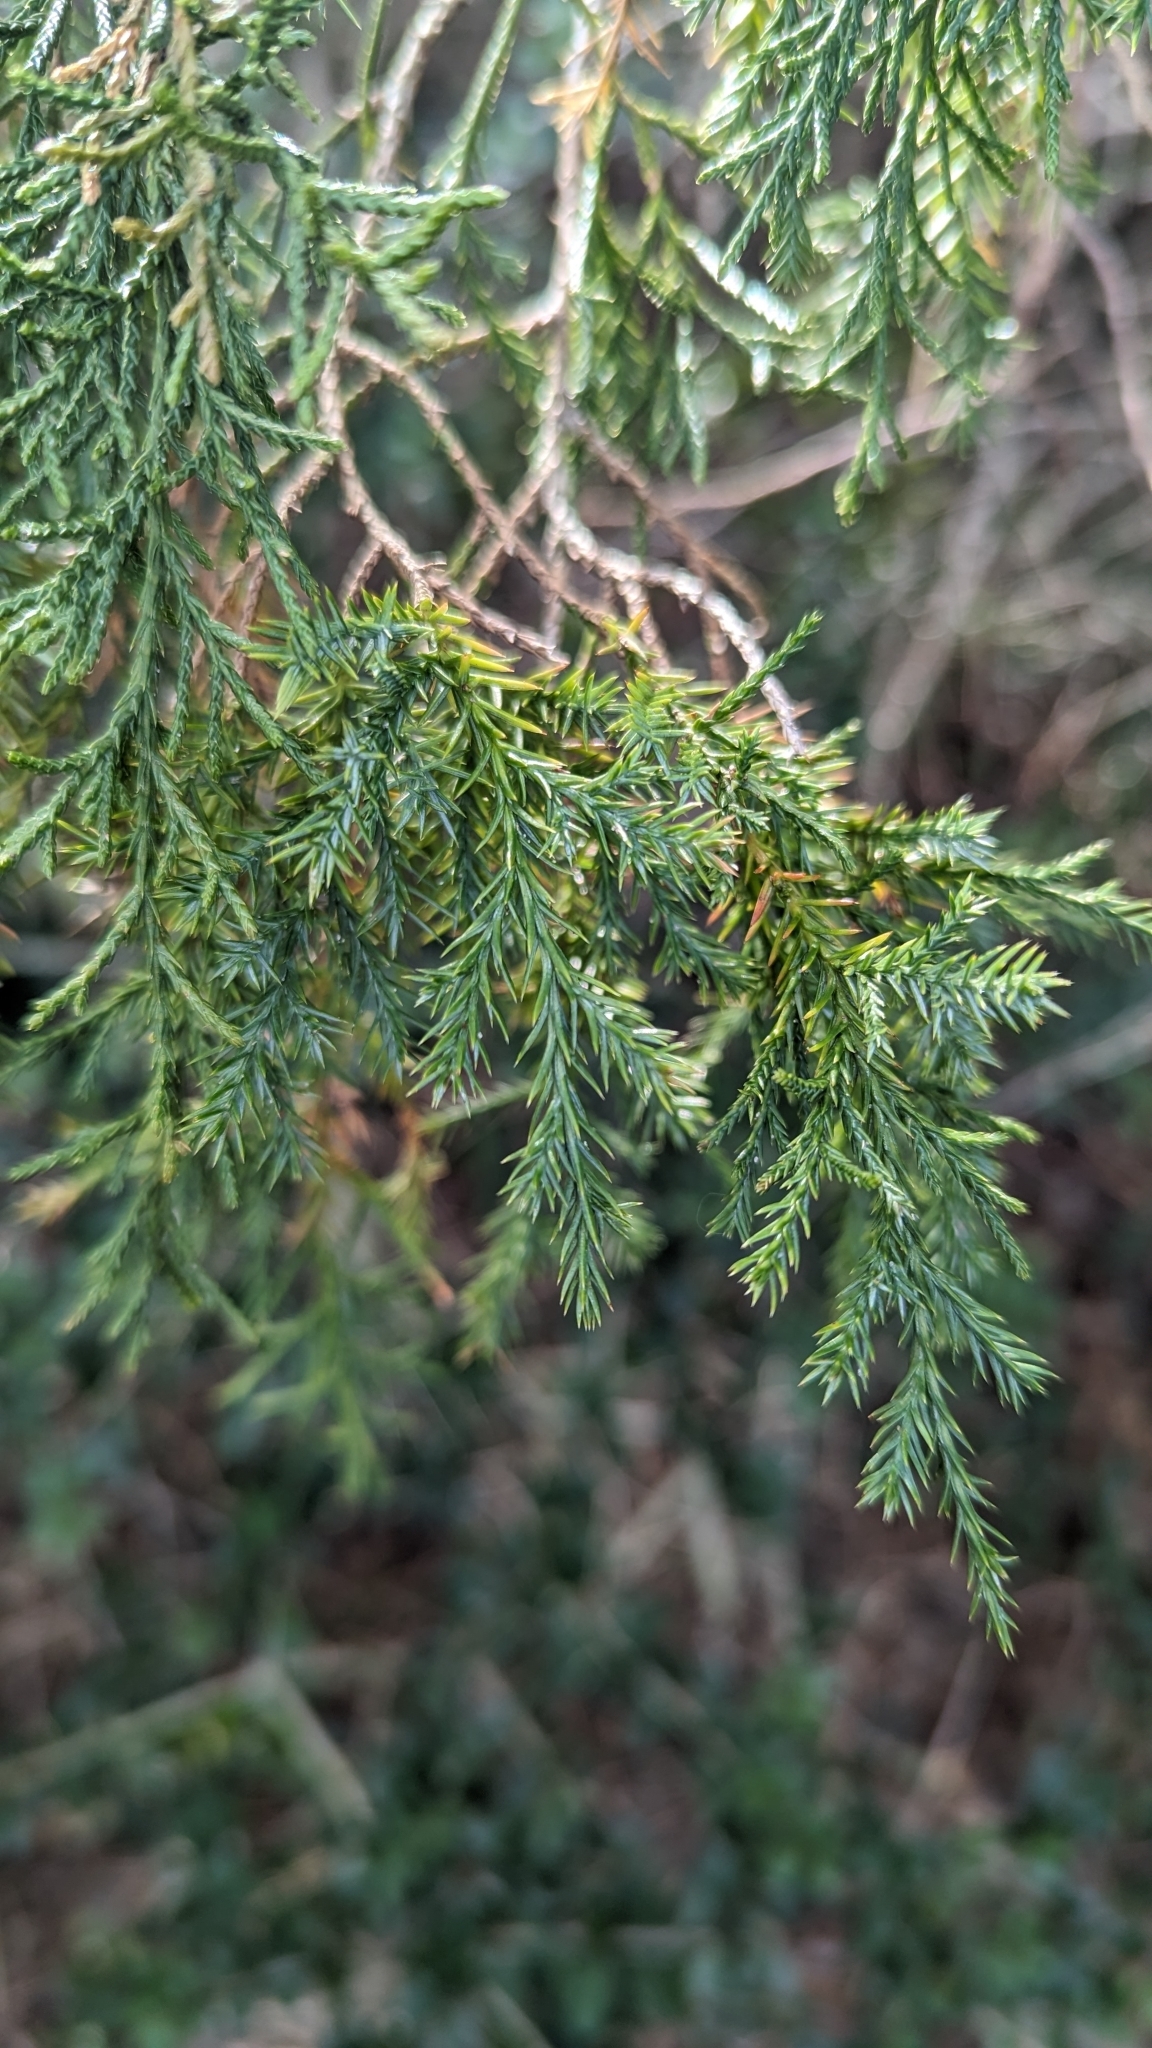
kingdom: Plantae
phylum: Tracheophyta
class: Pinopsida
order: Pinales
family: Cupressaceae
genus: Juniperus
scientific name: Juniperus virginiana
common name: Red juniper
